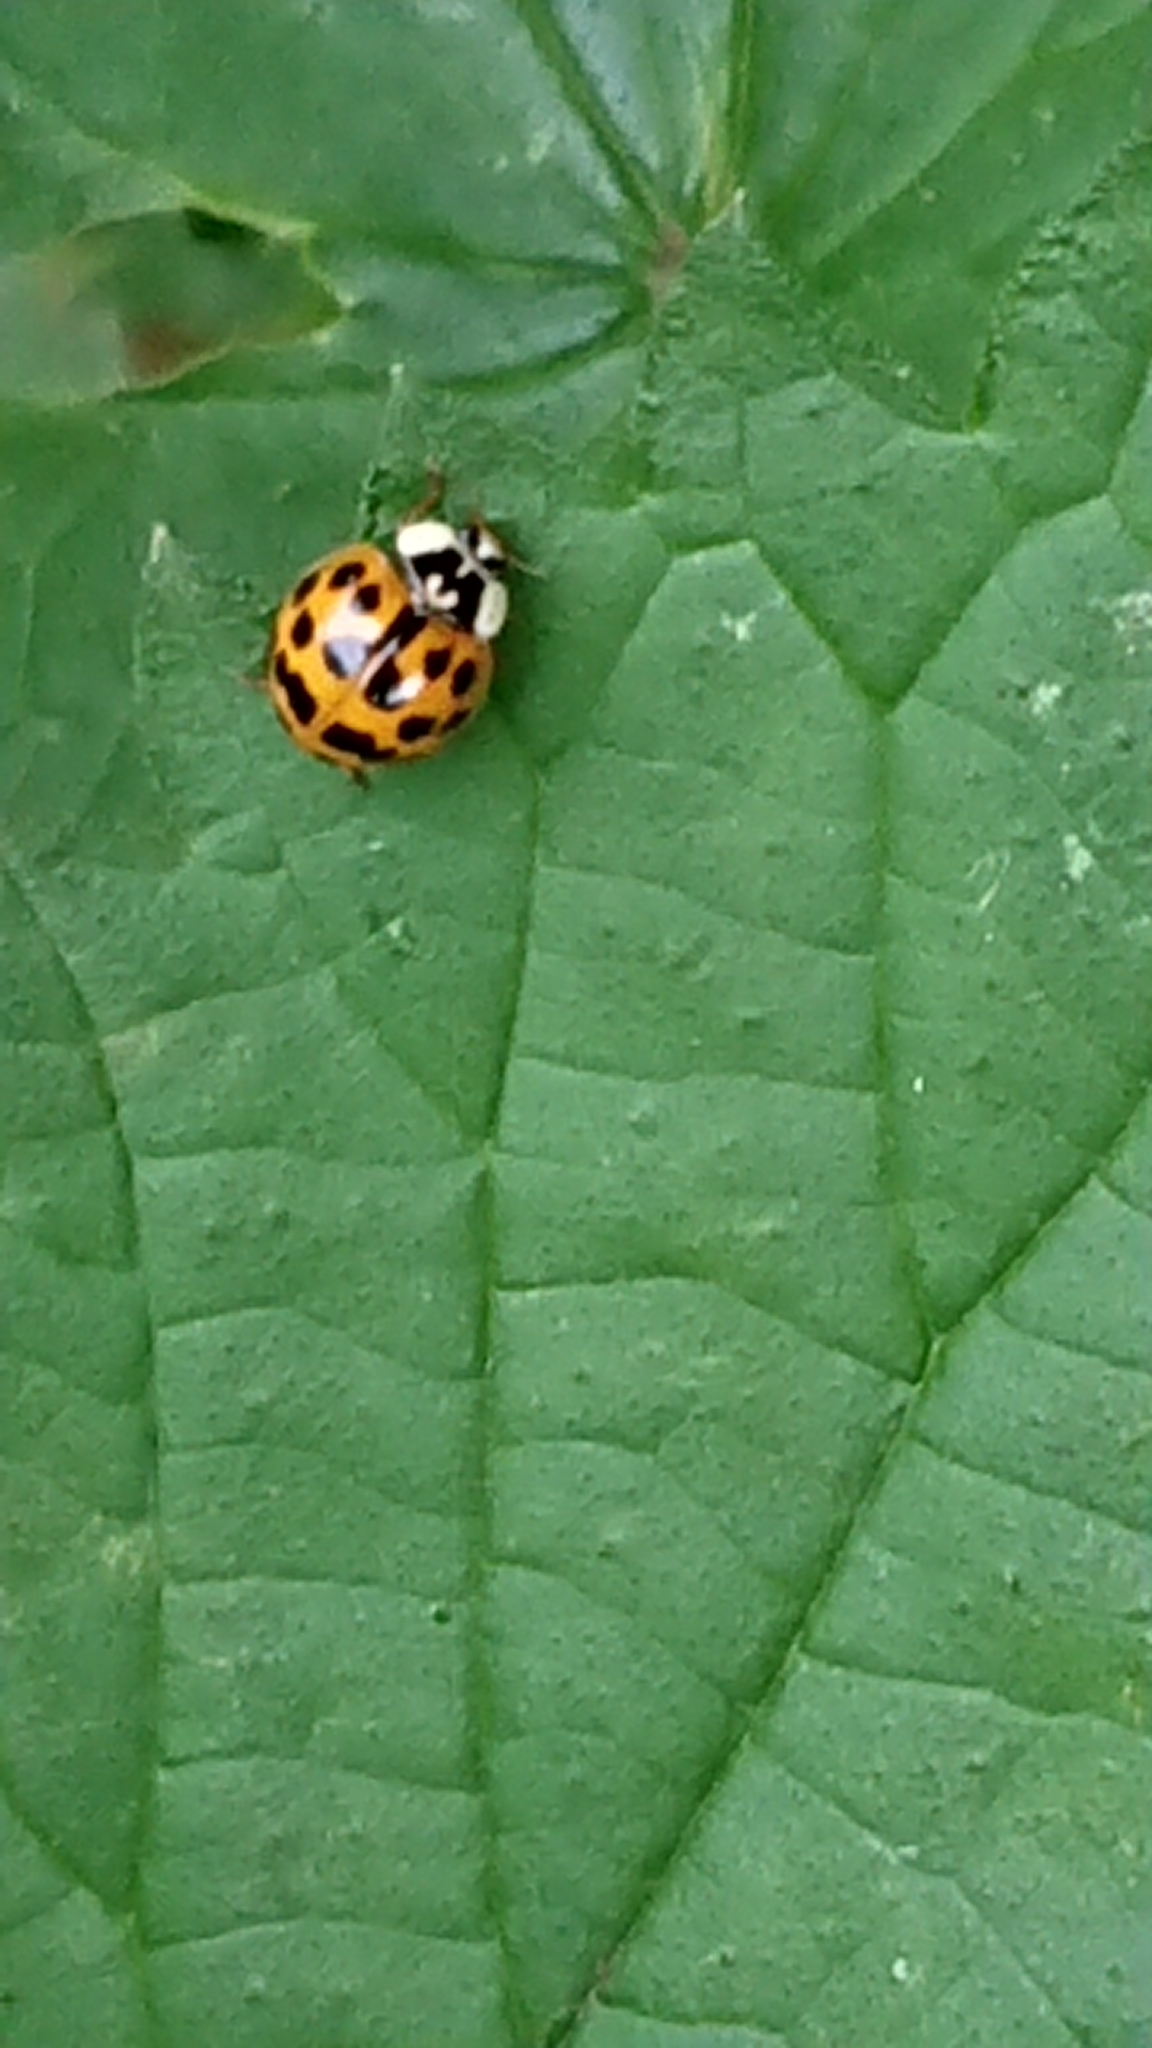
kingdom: Animalia
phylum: Arthropoda
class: Insecta
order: Coleoptera
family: Coccinellidae
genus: Harmonia
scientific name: Harmonia axyridis
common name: Harlequin ladybird
